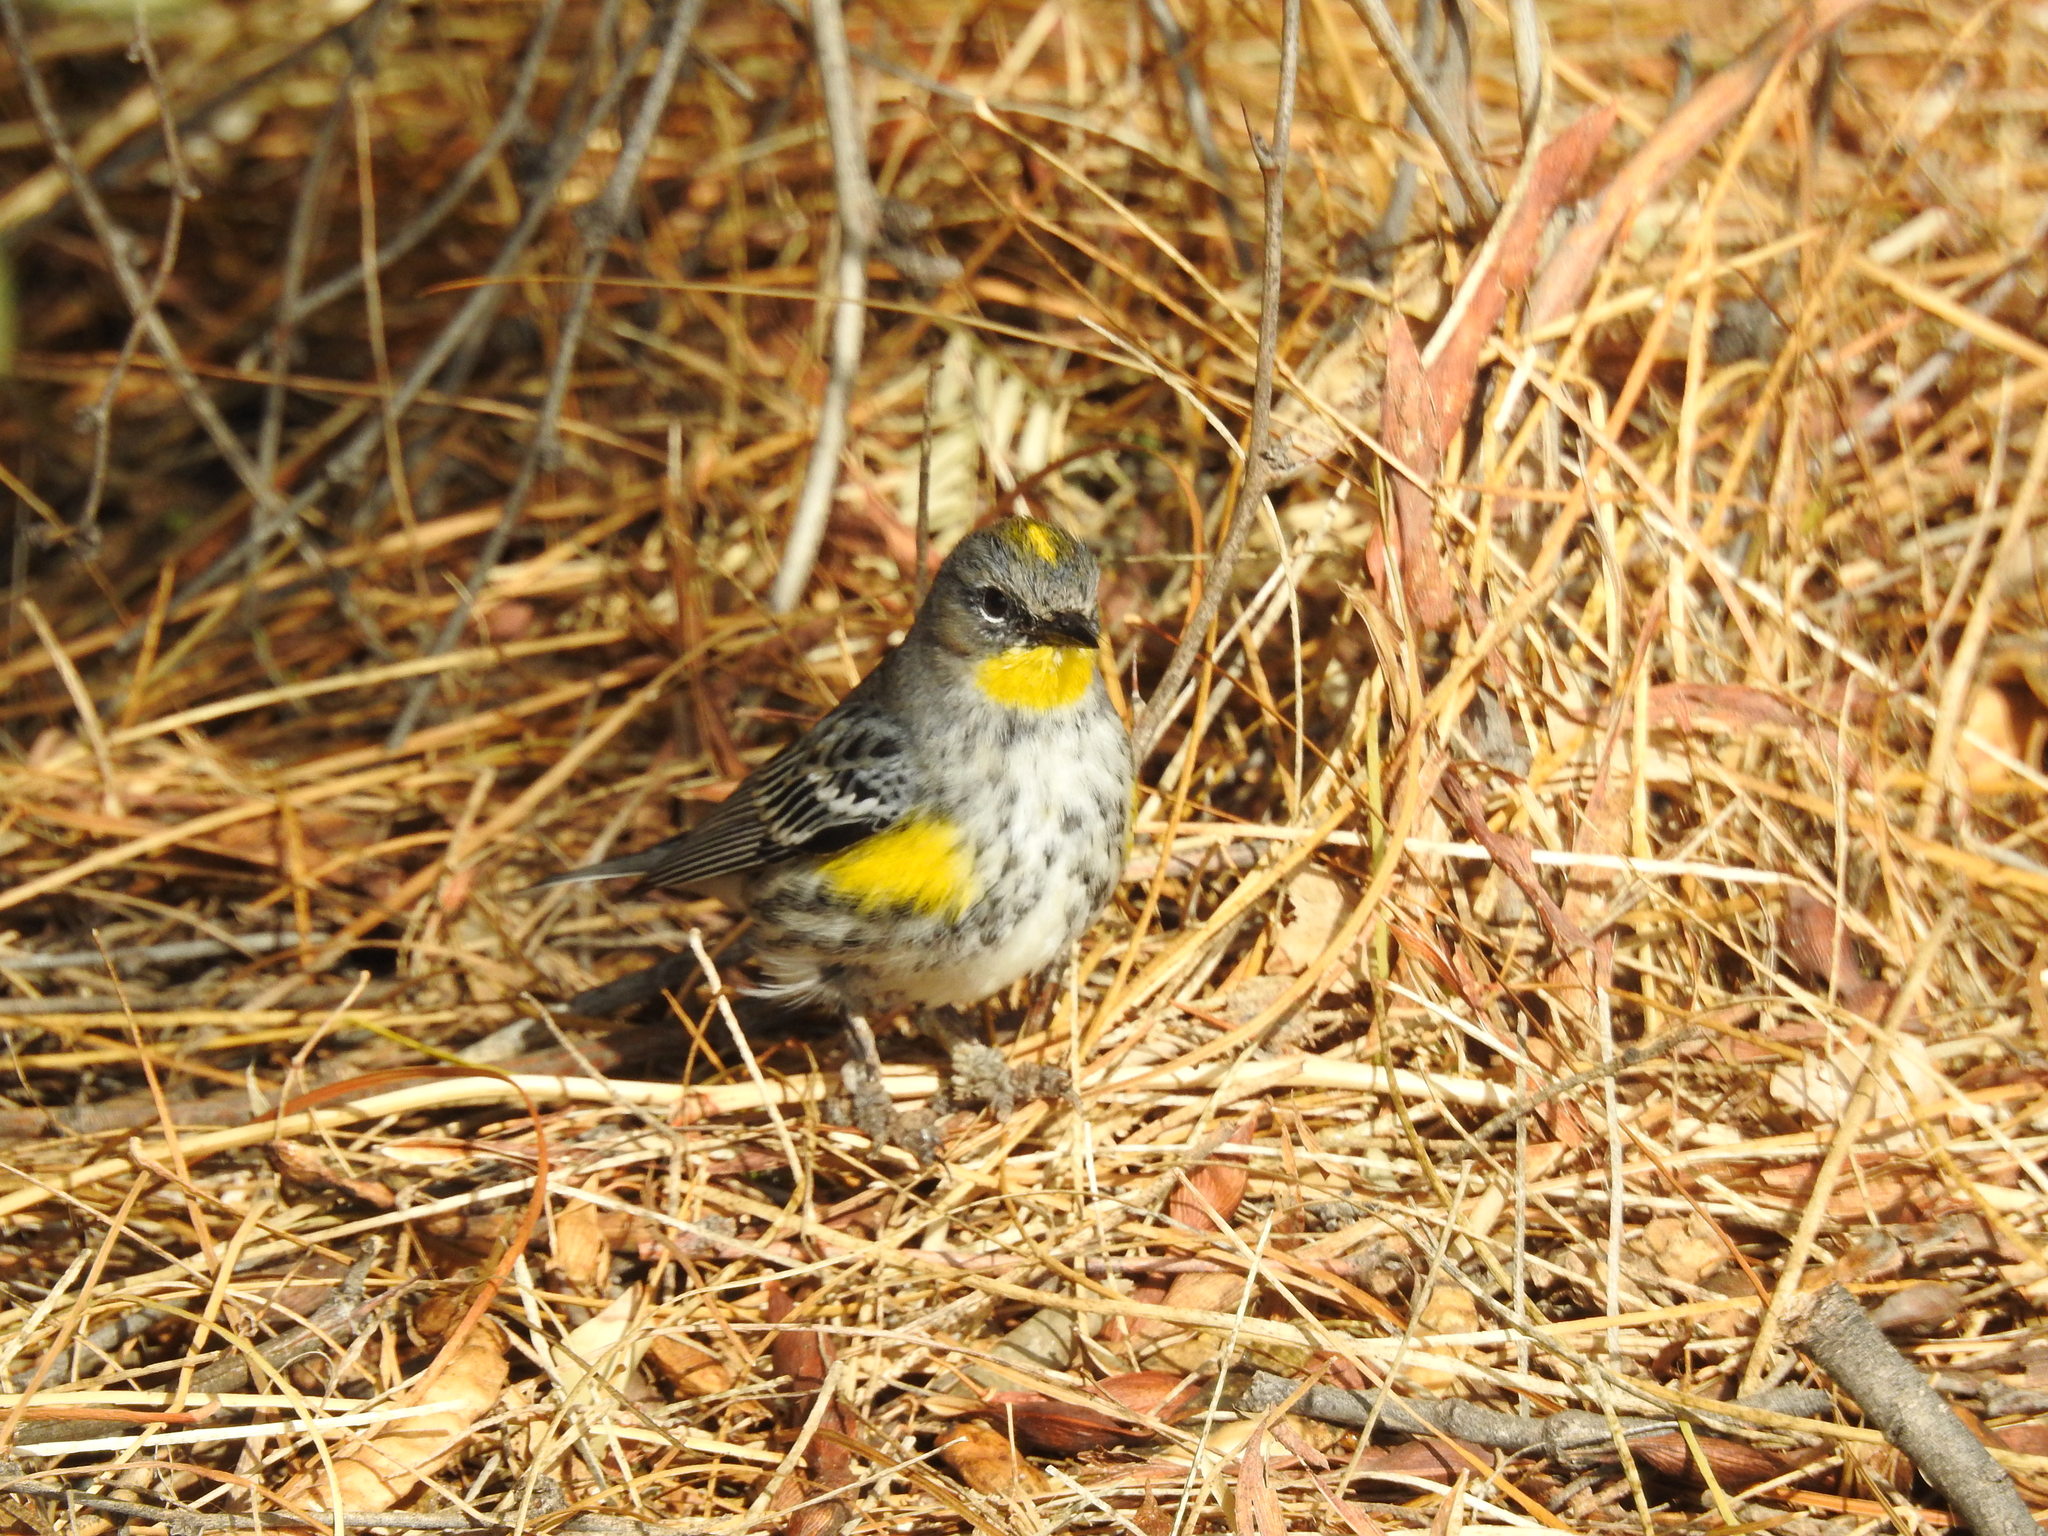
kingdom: Animalia
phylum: Chordata
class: Aves
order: Passeriformes
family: Parulidae
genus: Setophaga
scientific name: Setophaga coronata
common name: Myrtle warbler
